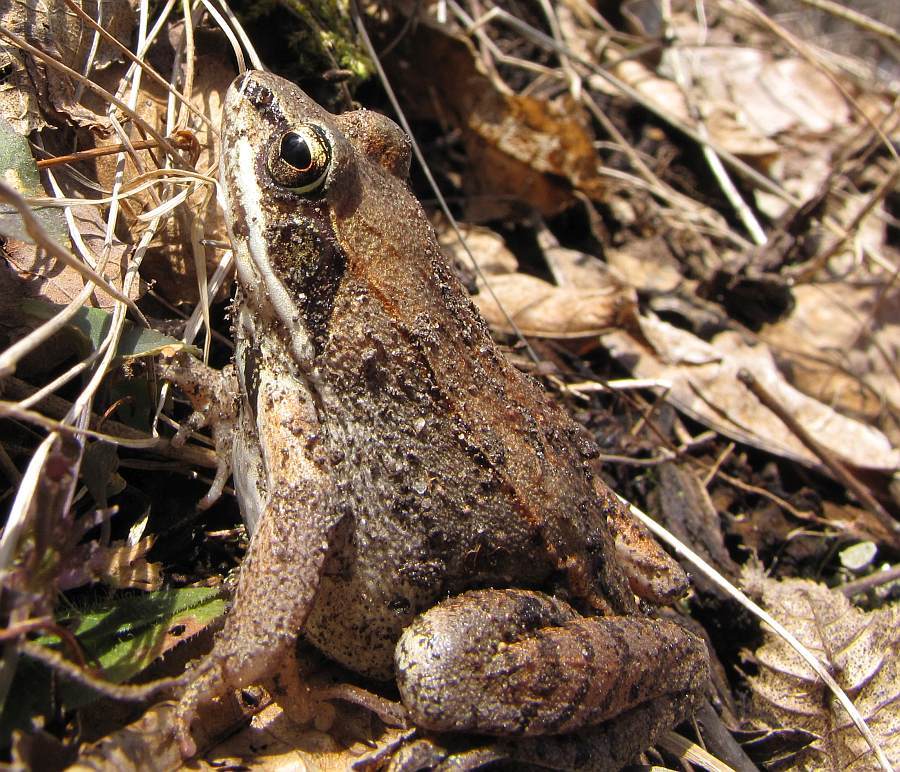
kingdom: Animalia
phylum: Chordata
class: Amphibia
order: Anura
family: Ranidae
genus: Lithobates
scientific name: Lithobates sylvaticus
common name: Wood frog
